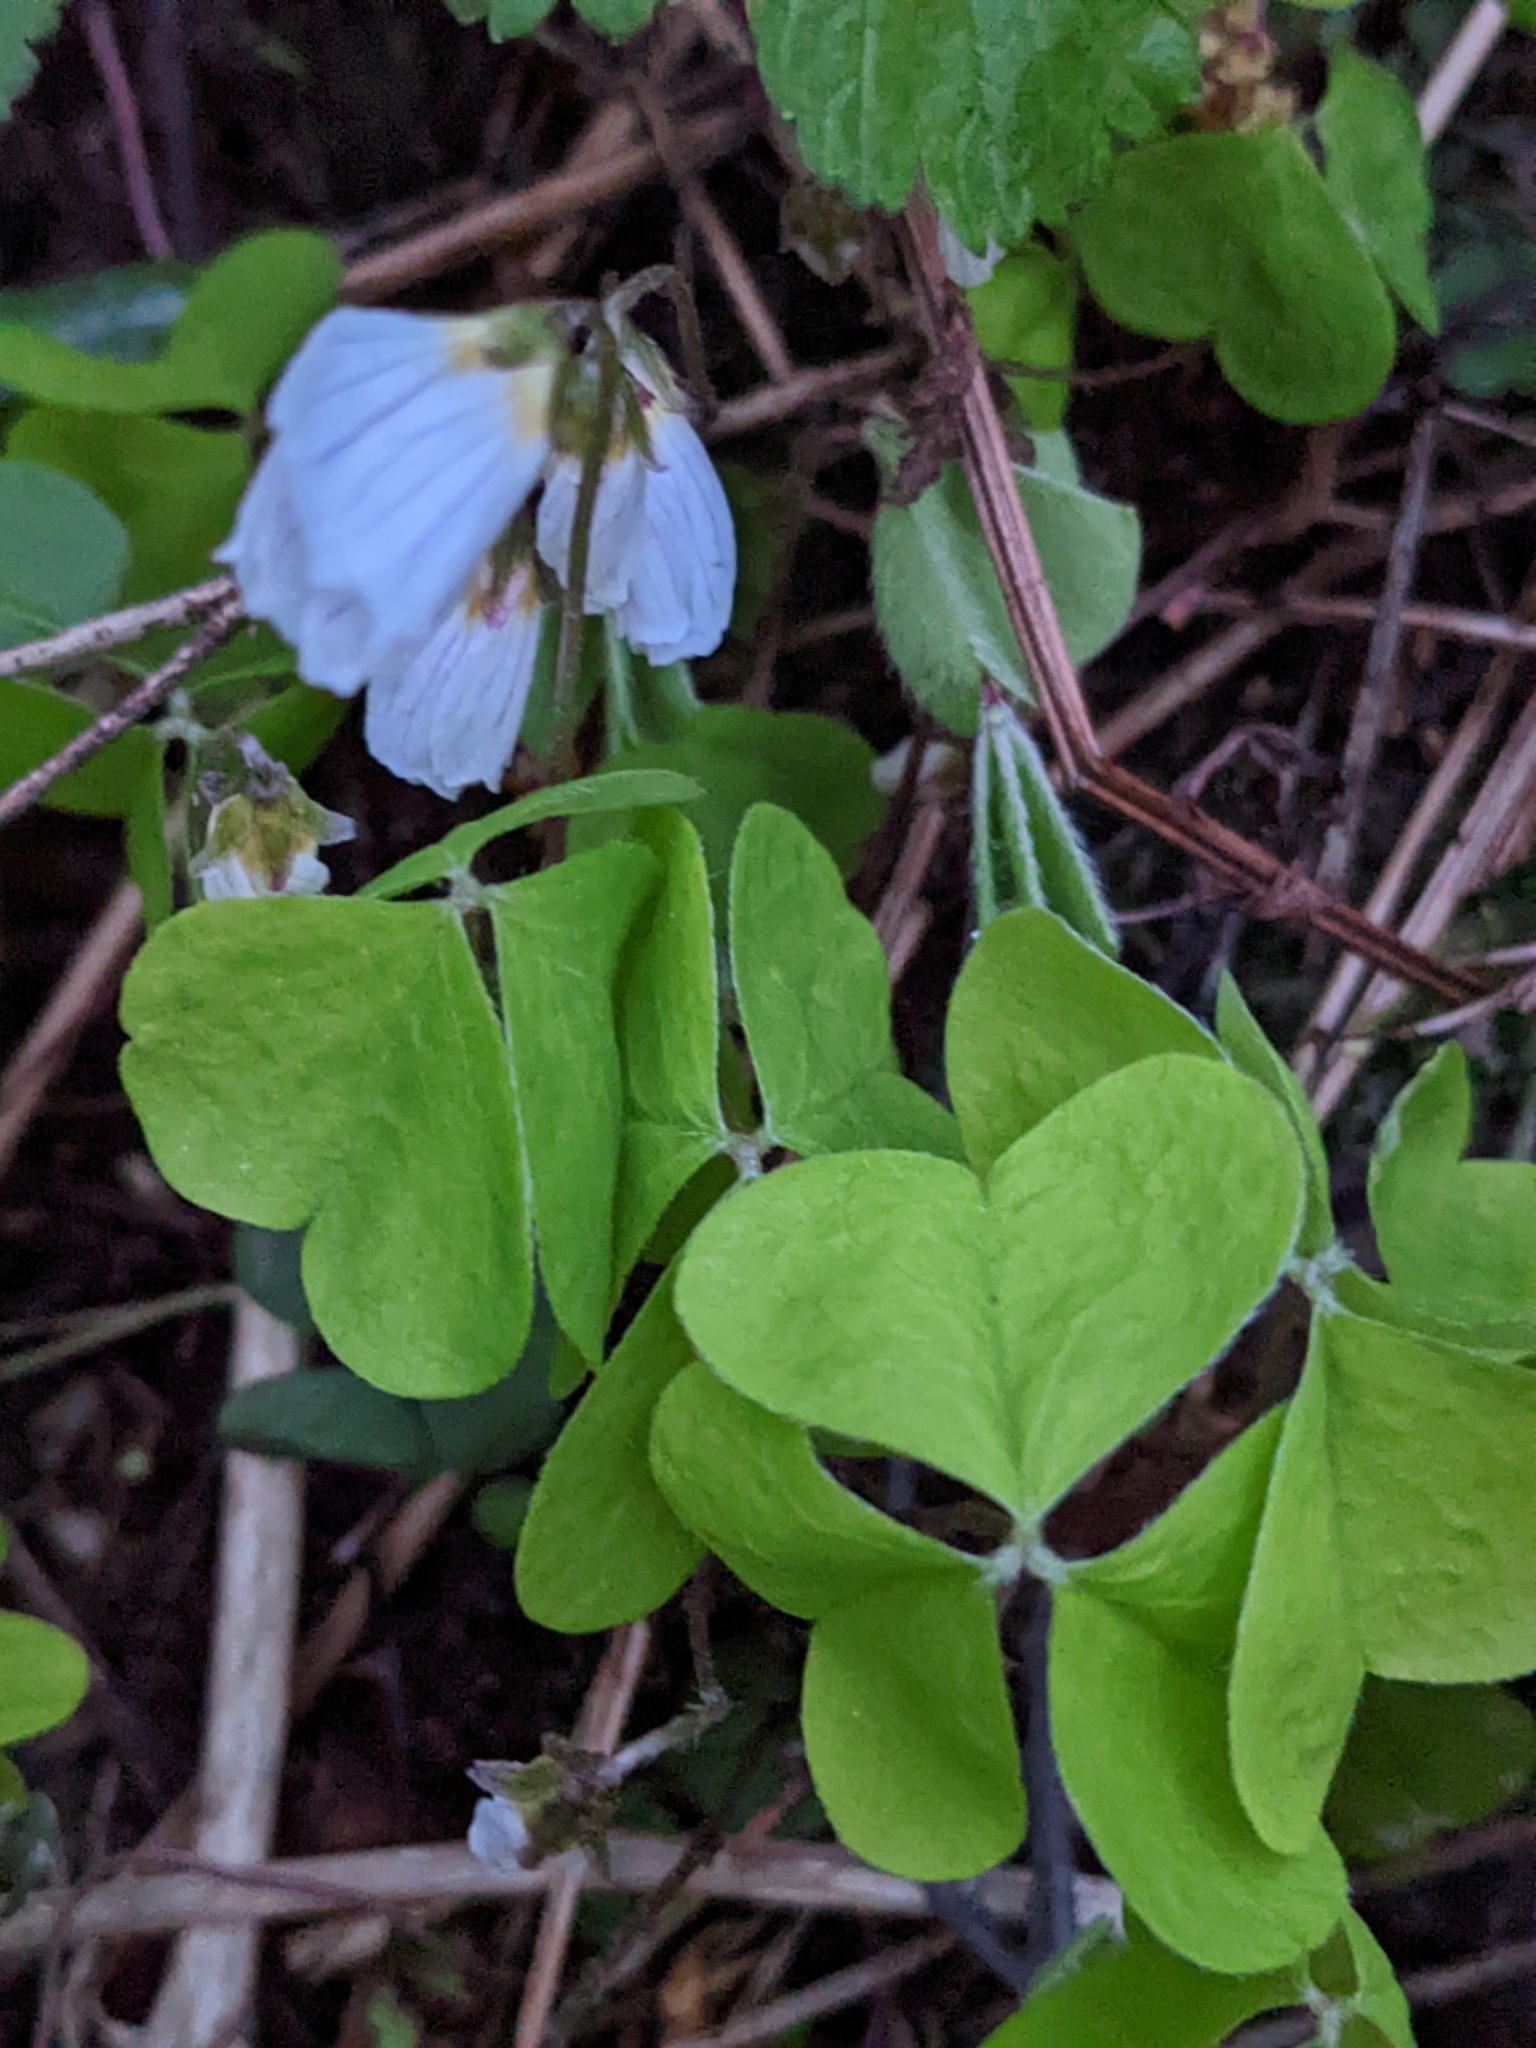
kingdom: Plantae
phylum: Tracheophyta
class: Magnoliopsida
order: Oxalidales
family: Oxalidaceae
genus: Oxalis
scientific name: Oxalis acetosella
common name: Wood-sorrel
